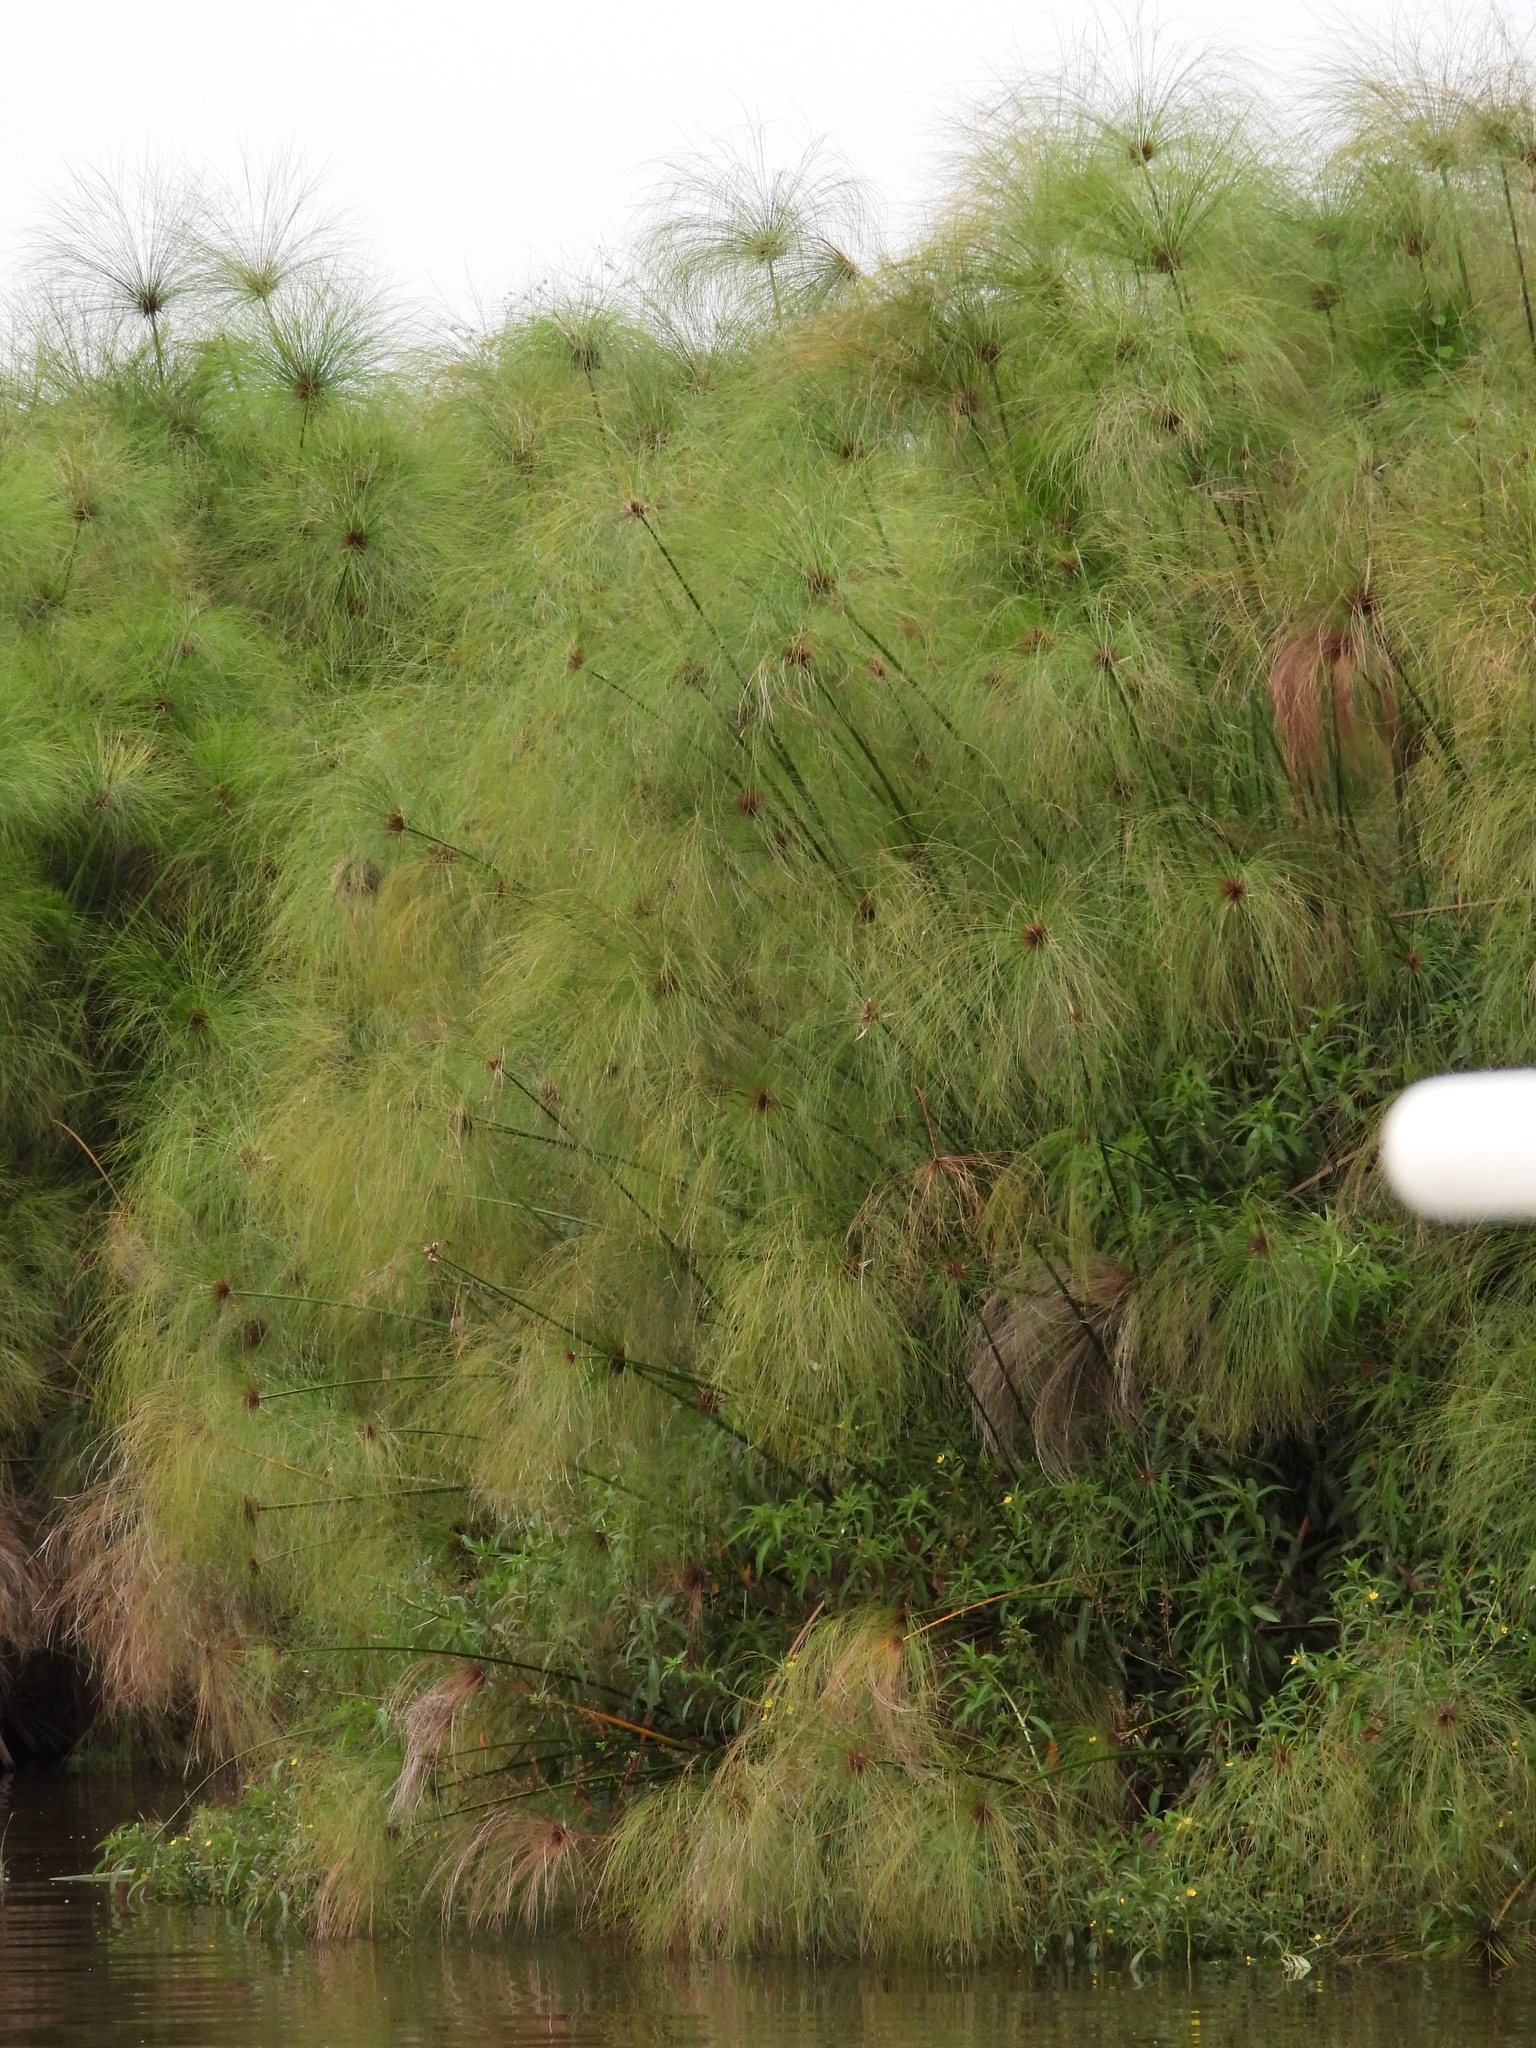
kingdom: Plantae
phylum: Tracheophyta
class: Liliopsida
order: Poales
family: Cyperaceae
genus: Cyperus
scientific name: Cyperus papyrus
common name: Papyrus
